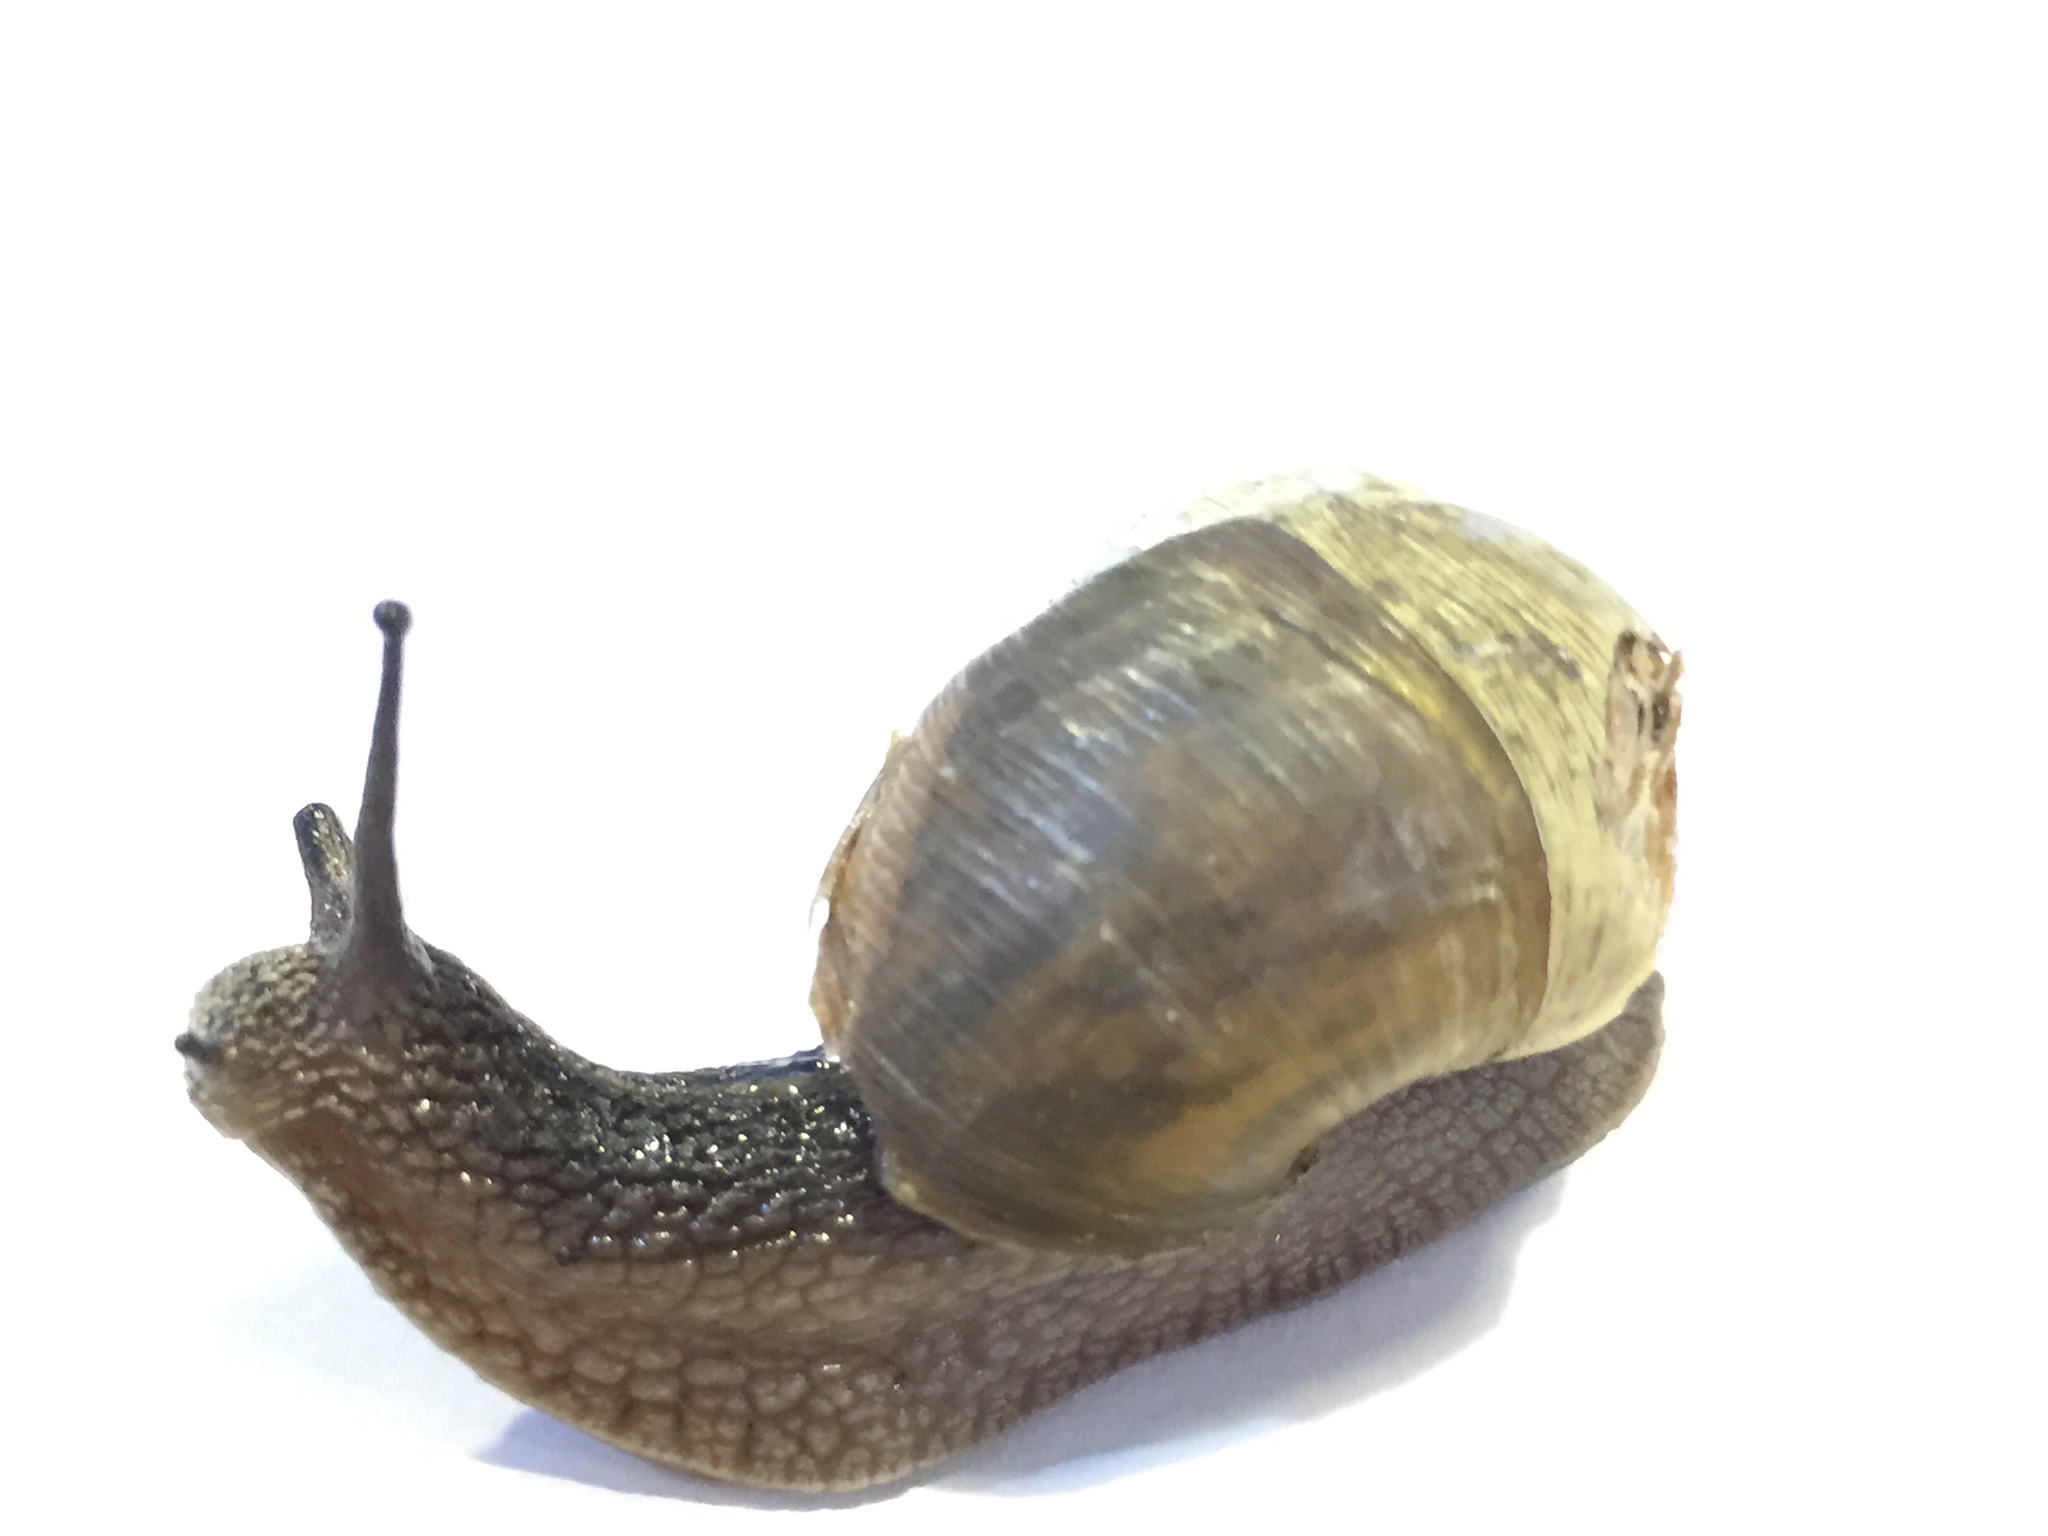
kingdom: Animalia
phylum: Mollusca
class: Gastropoda
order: Stylommatophora
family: Camaenidae
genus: Acusta
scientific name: Acusta ravida
